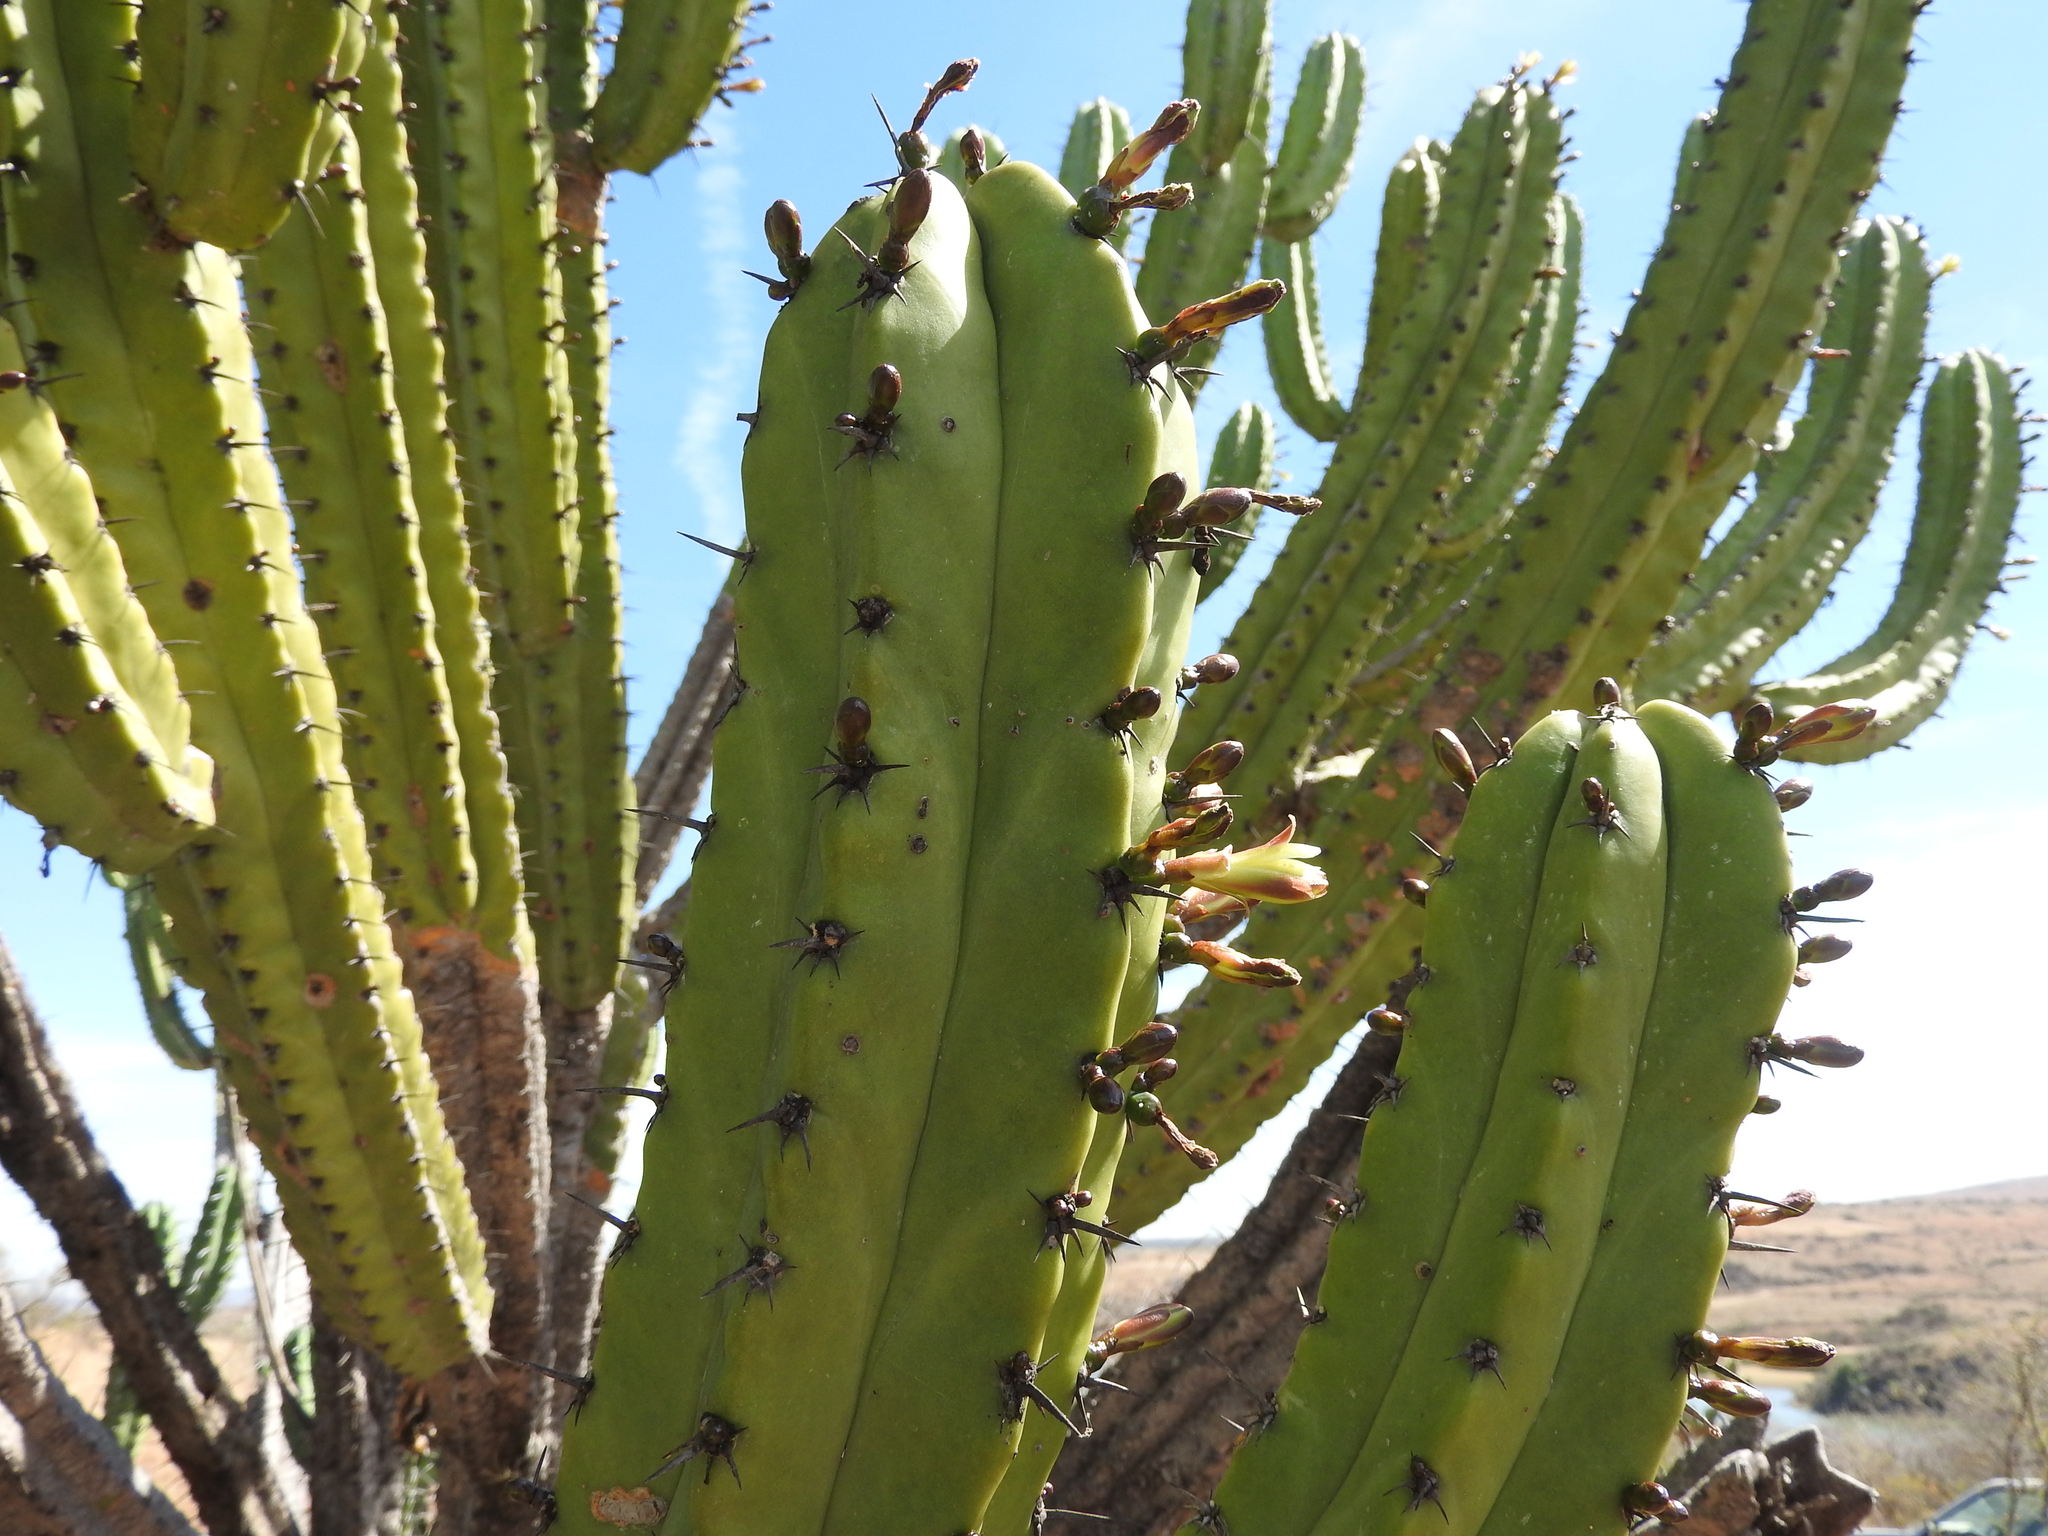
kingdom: Plantae
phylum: Tracheophyta
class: Magnoliopsida
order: Caryophyllales
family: Cactaceae
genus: Myrtillocactus
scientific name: Myrtillocactus geometrizans
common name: Bilberry cactus
